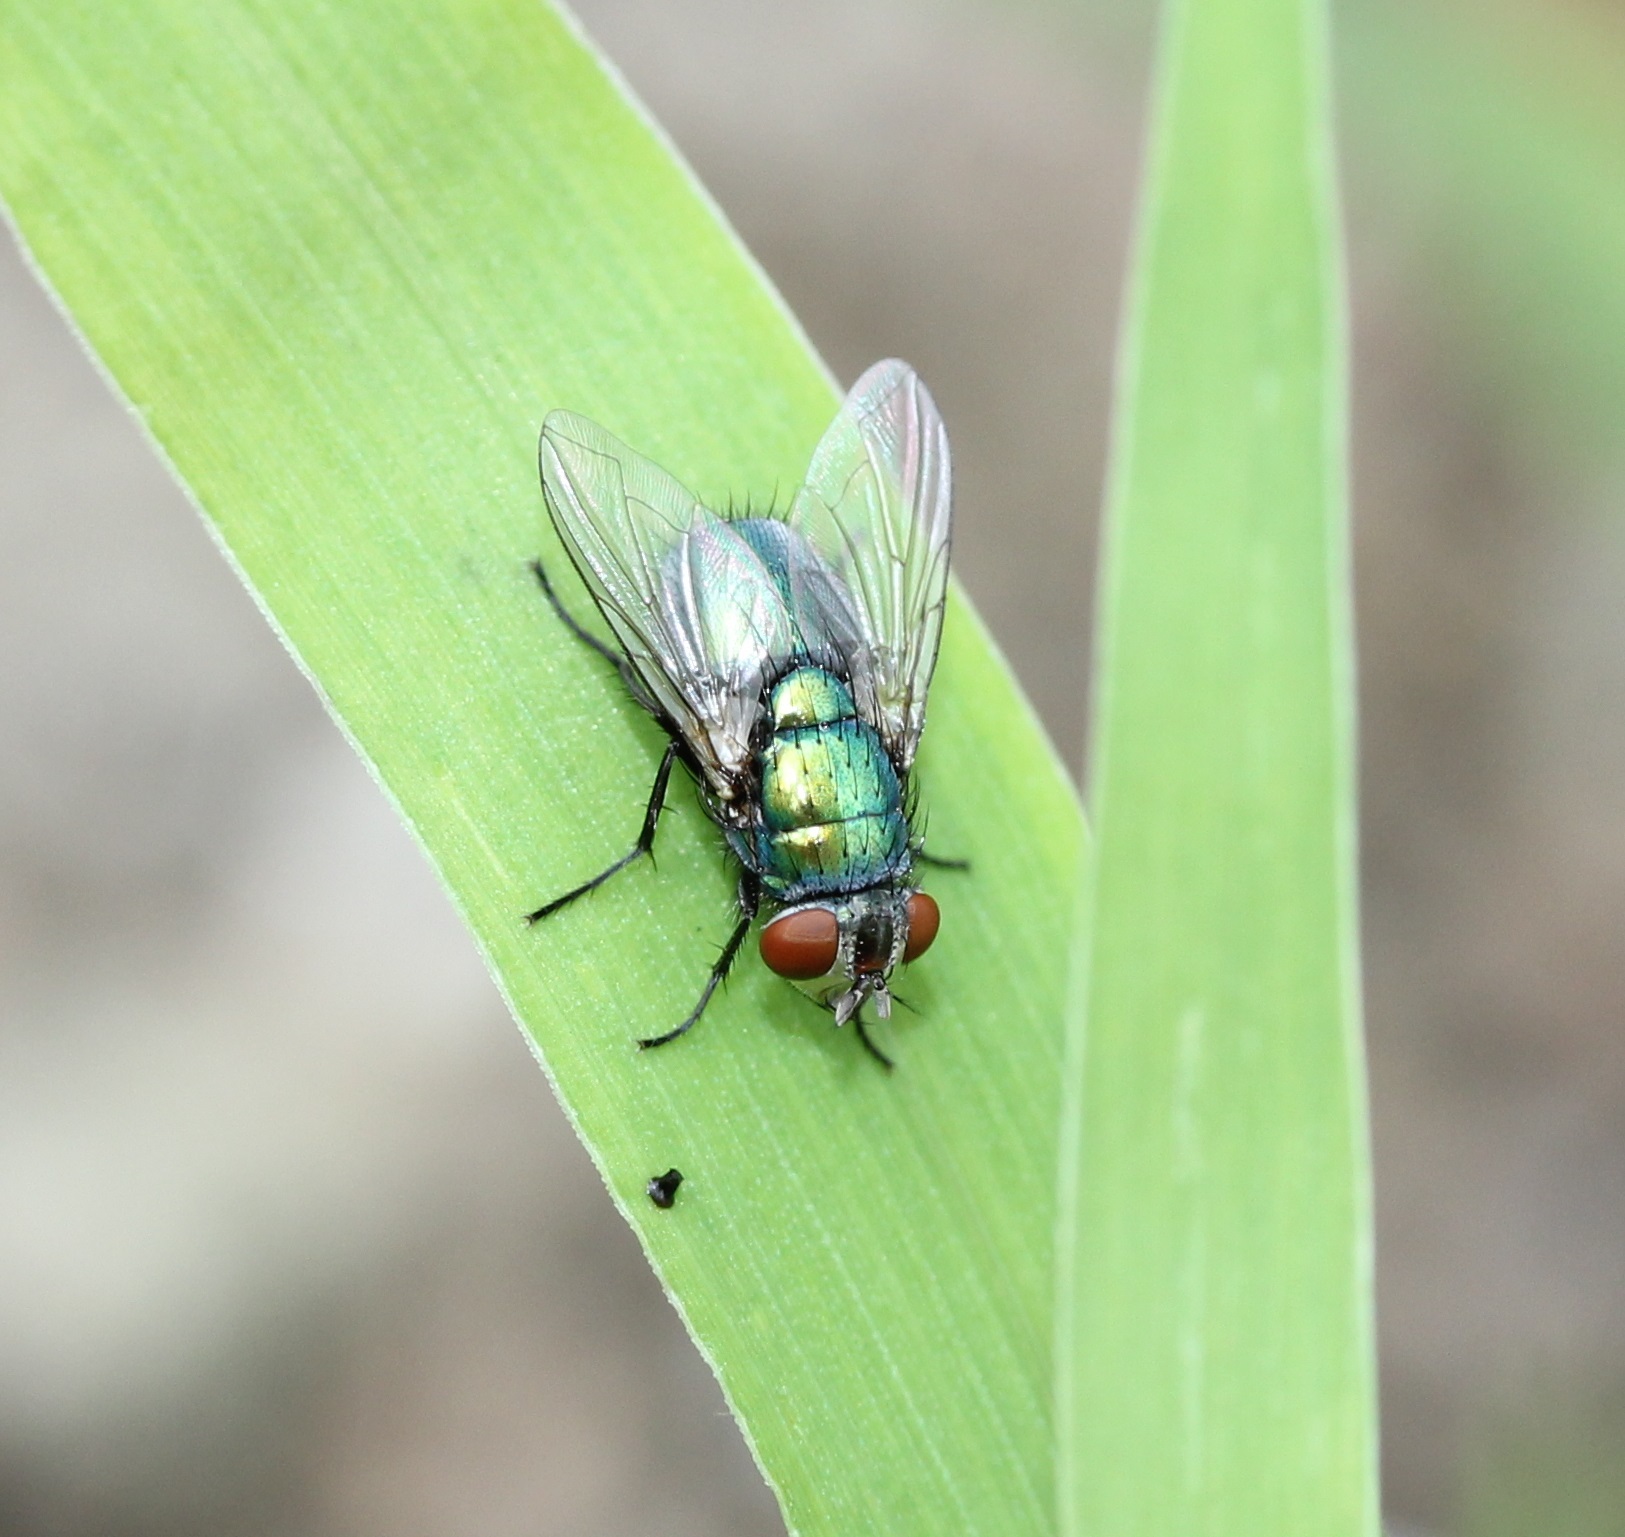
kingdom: Animalia
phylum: Arthropoda
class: Insecta
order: Diptera
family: Calliphoridae
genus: Lucilia
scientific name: Lucilia sericata
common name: Blow fly
